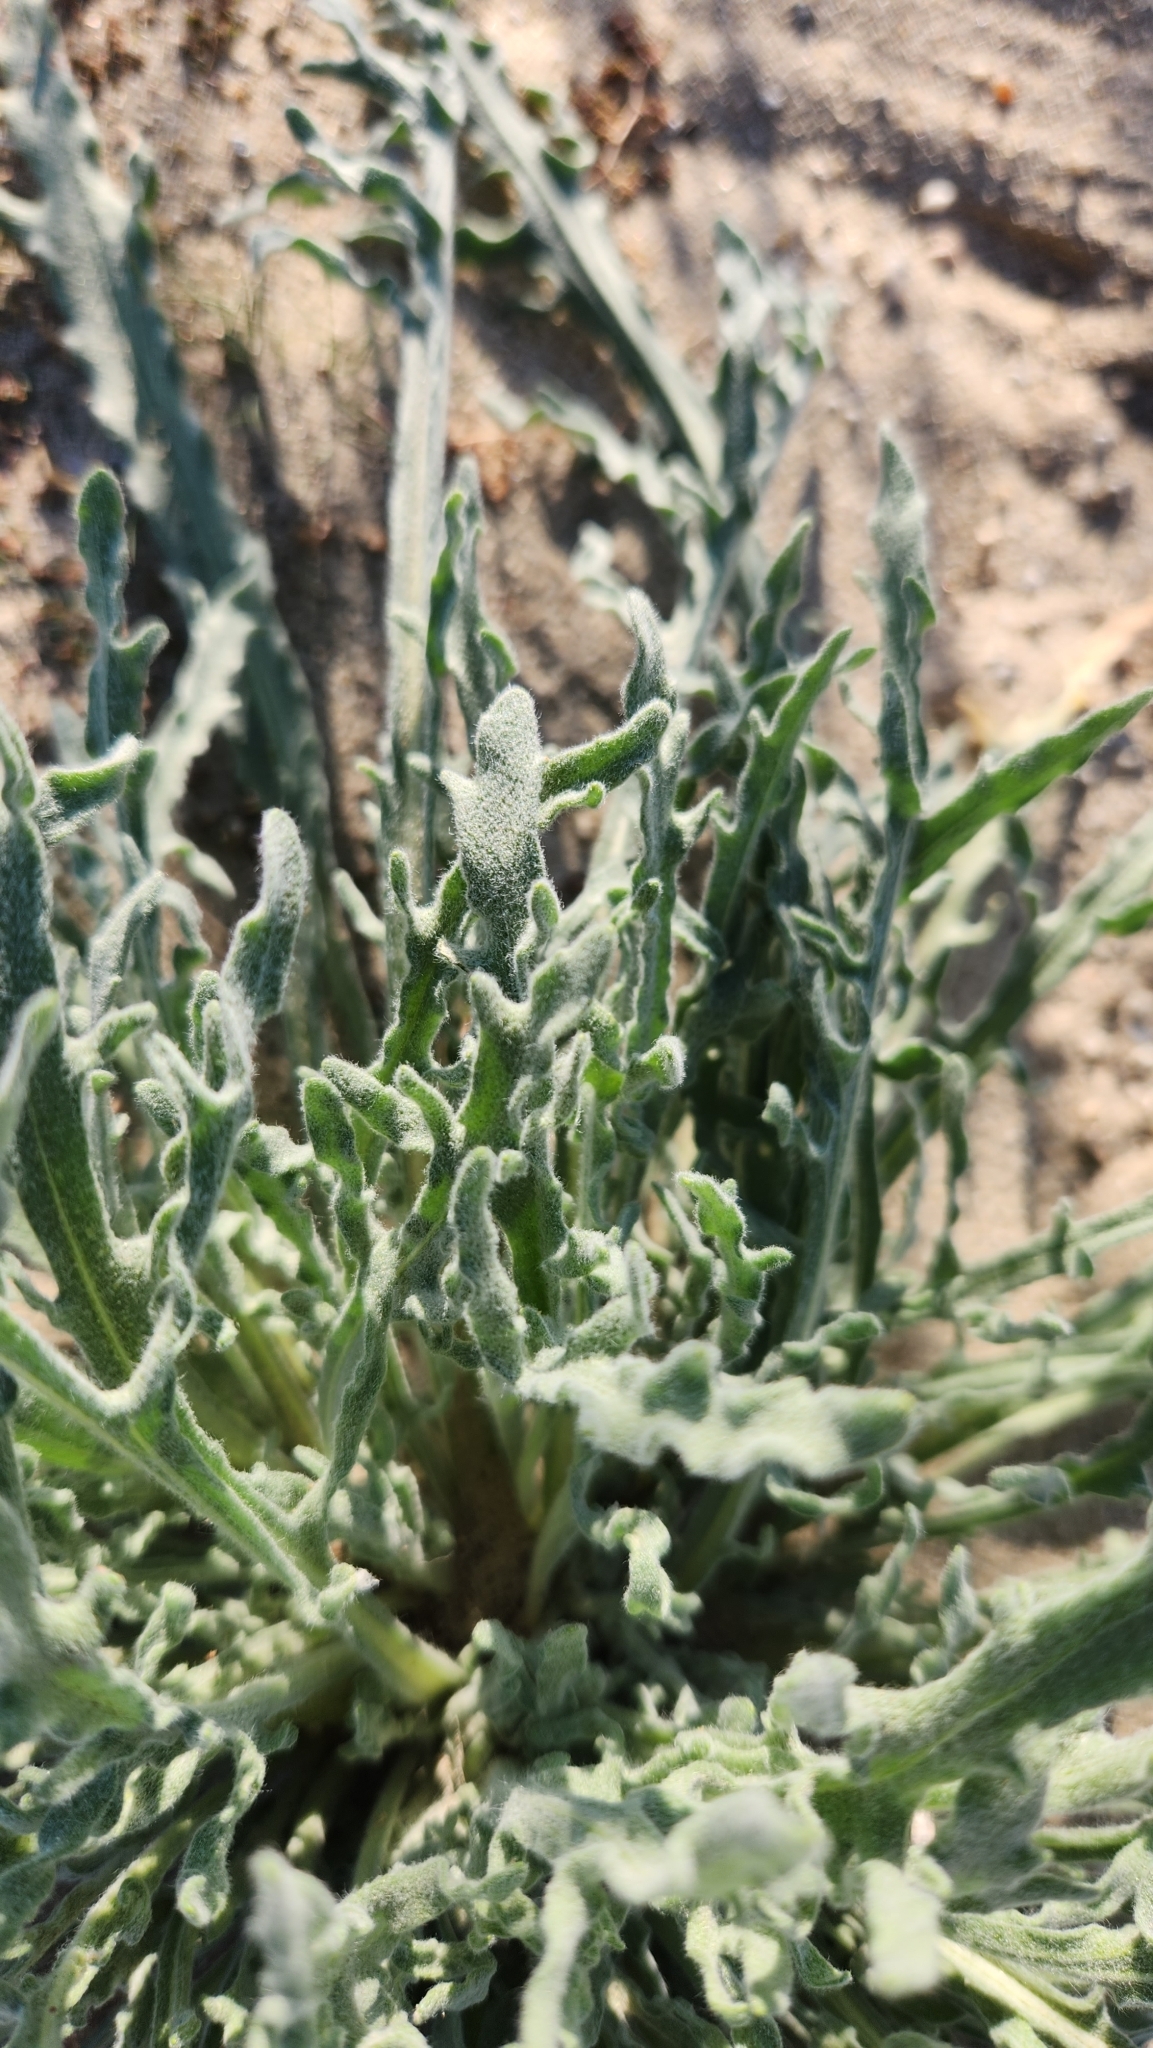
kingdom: Plantae
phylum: Tracheophyta
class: Magnoliopsida
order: Asterales
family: Asteraceae
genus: Baileya
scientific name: Baileya pauciradiata
